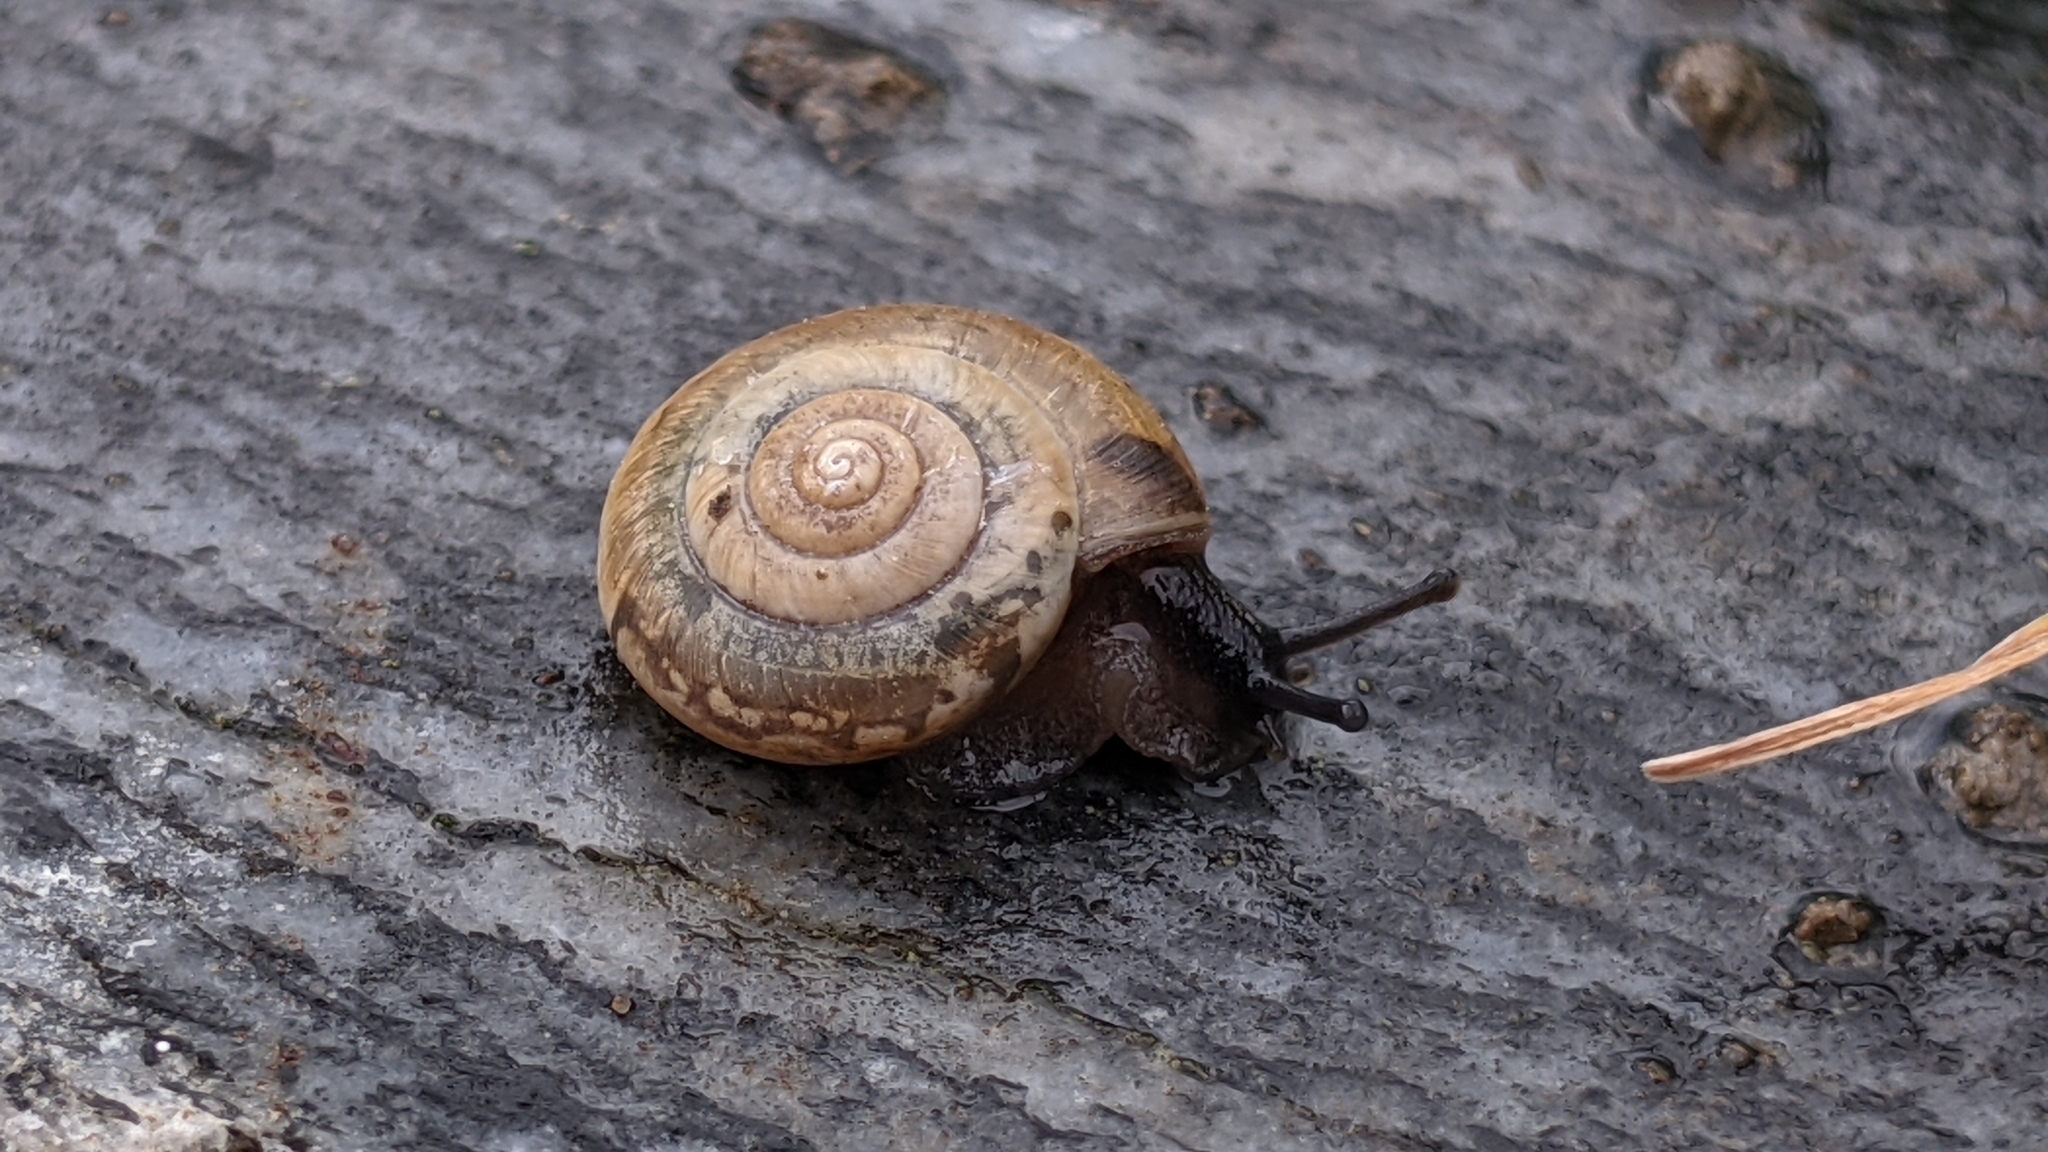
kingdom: Animalia
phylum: Mollusca
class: Gastropoda
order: Stylommatophora
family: Hygromiidae
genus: Trochulus
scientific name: Trochulus clandestinus
